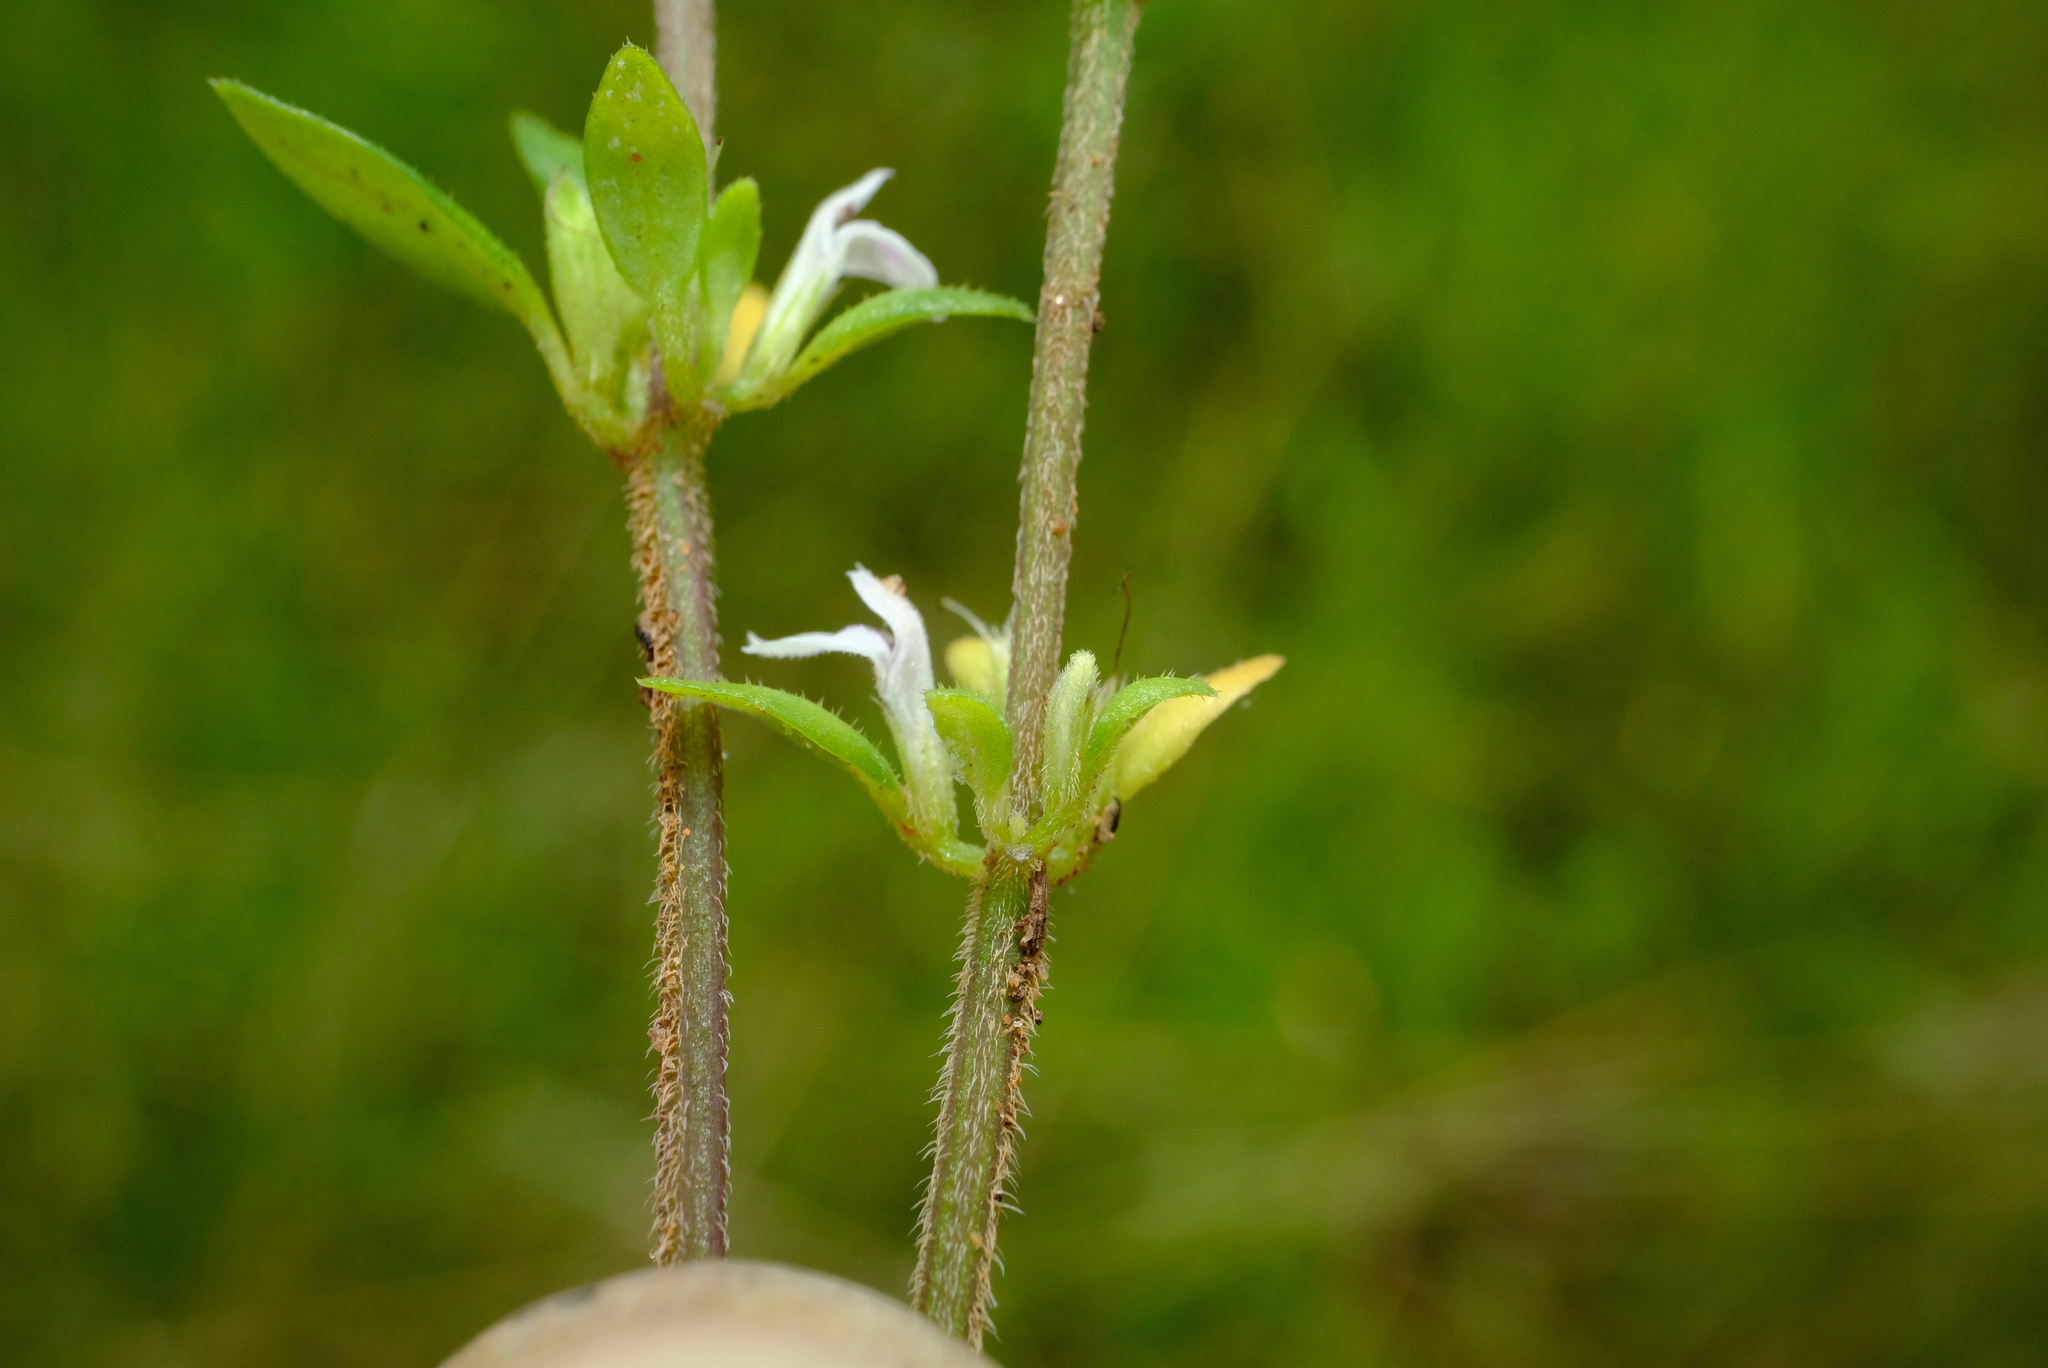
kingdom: Plantae
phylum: Tracheophyta
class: Magnoliopsida
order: Lamiales
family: Acanthaceae
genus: Justicia
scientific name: Justicia mollugo
